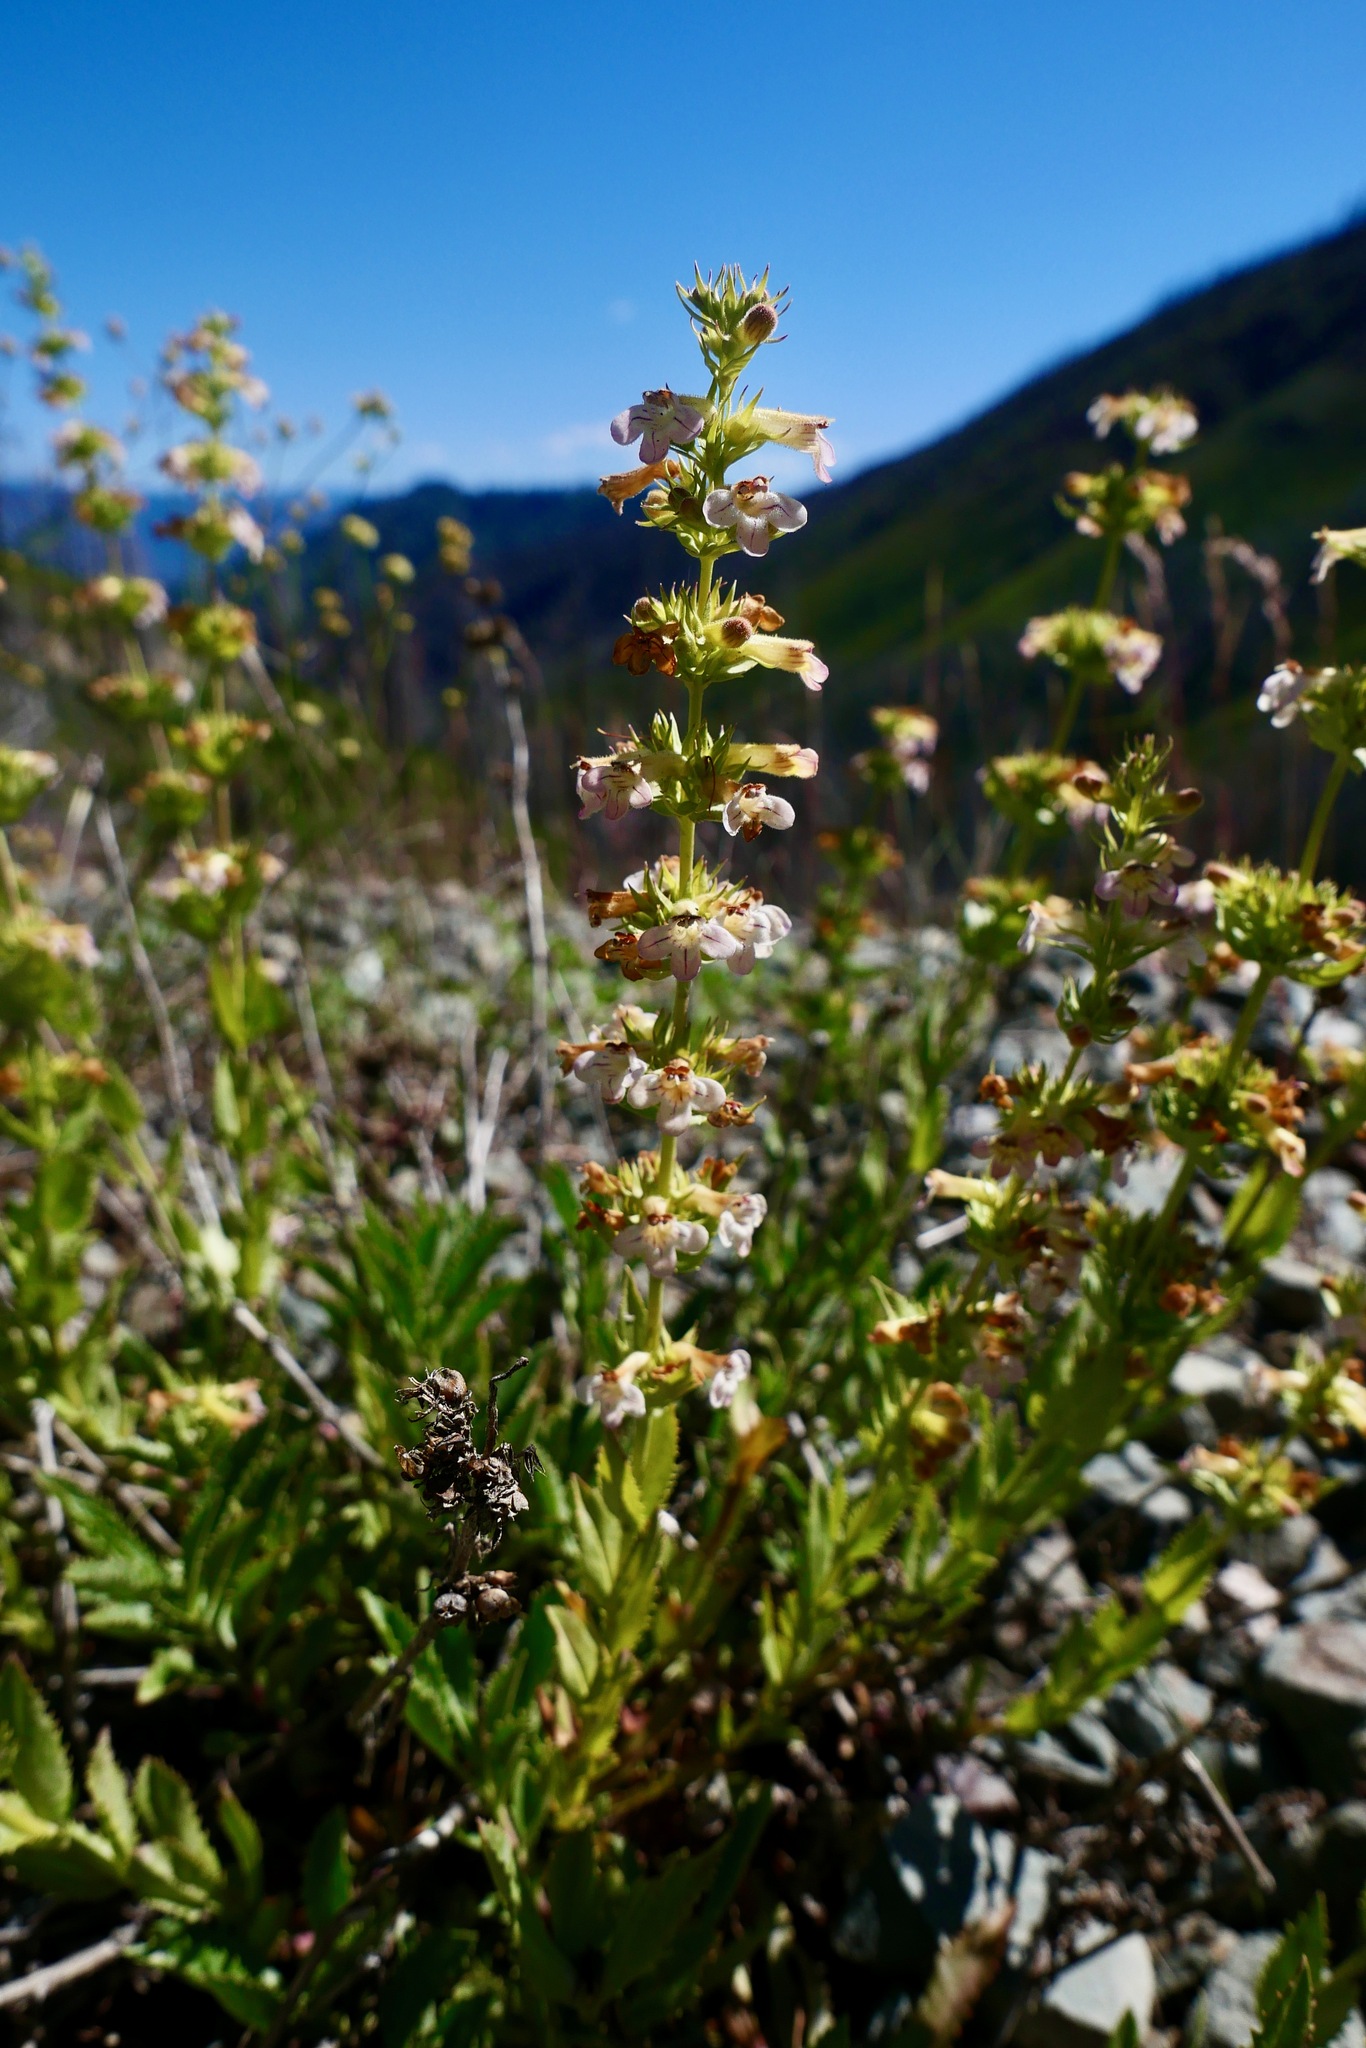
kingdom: Plantae
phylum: Tracheophyta
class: Magnoliopsida
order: Lamiales
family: Plantaginaceae
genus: Penstemon
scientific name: Penstemon deustus
